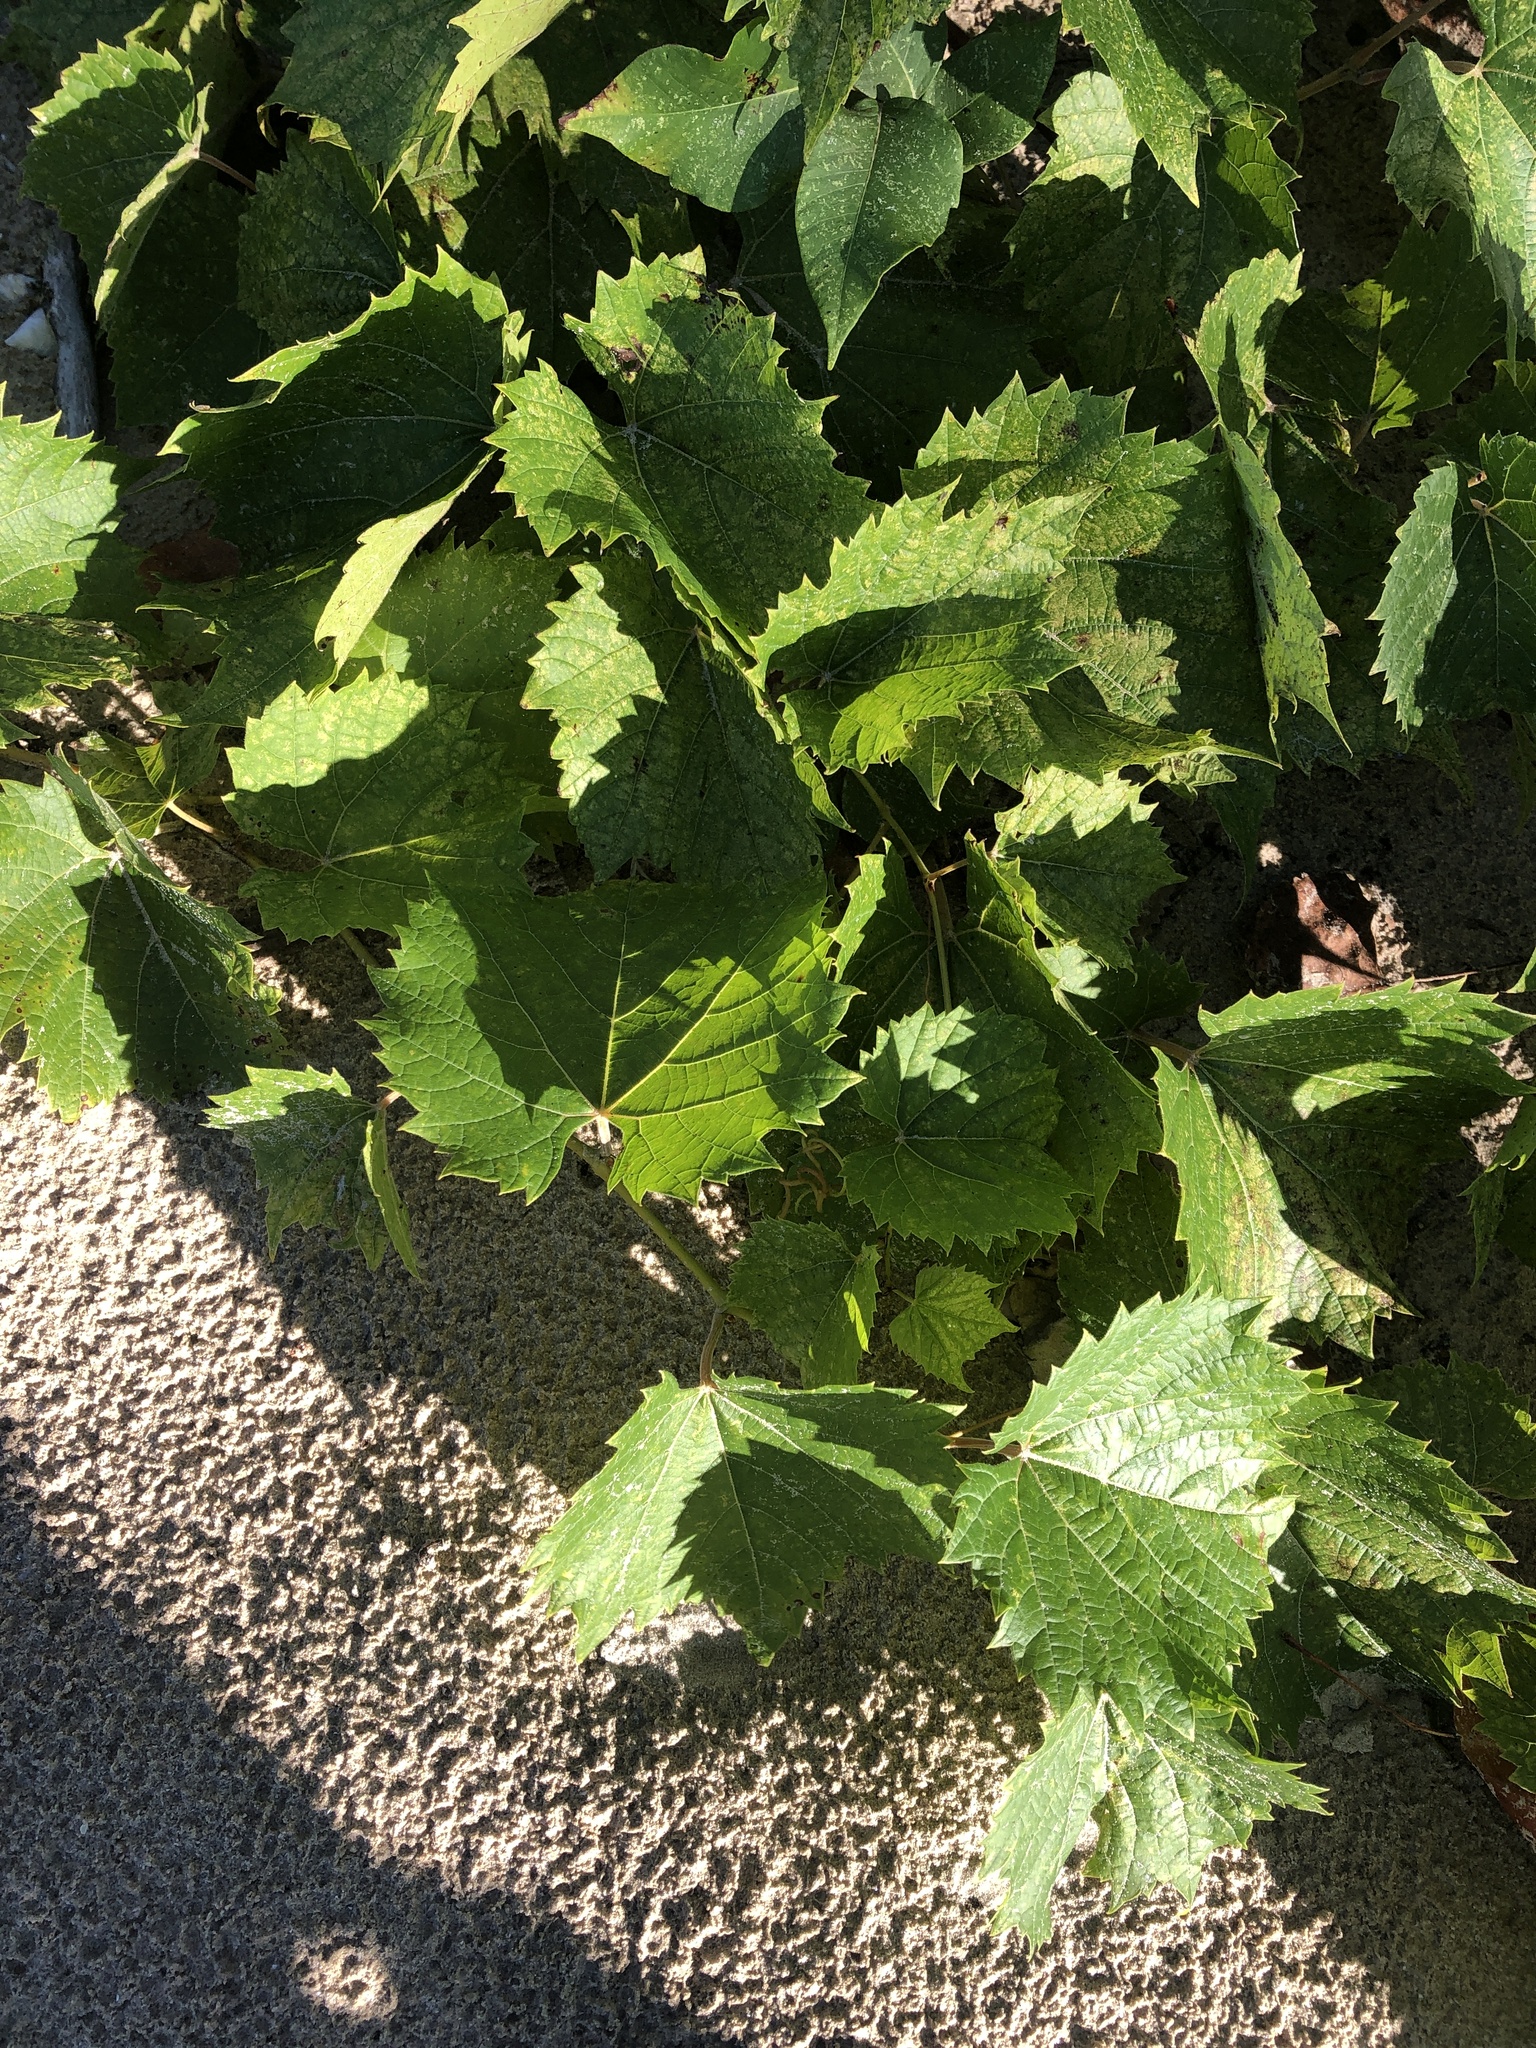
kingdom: Plantae
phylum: Tracheophyta
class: Magnoliopsida
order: Vitales
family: Vitaceae
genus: Vitis
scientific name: Vitis riparia
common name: Frost grape
